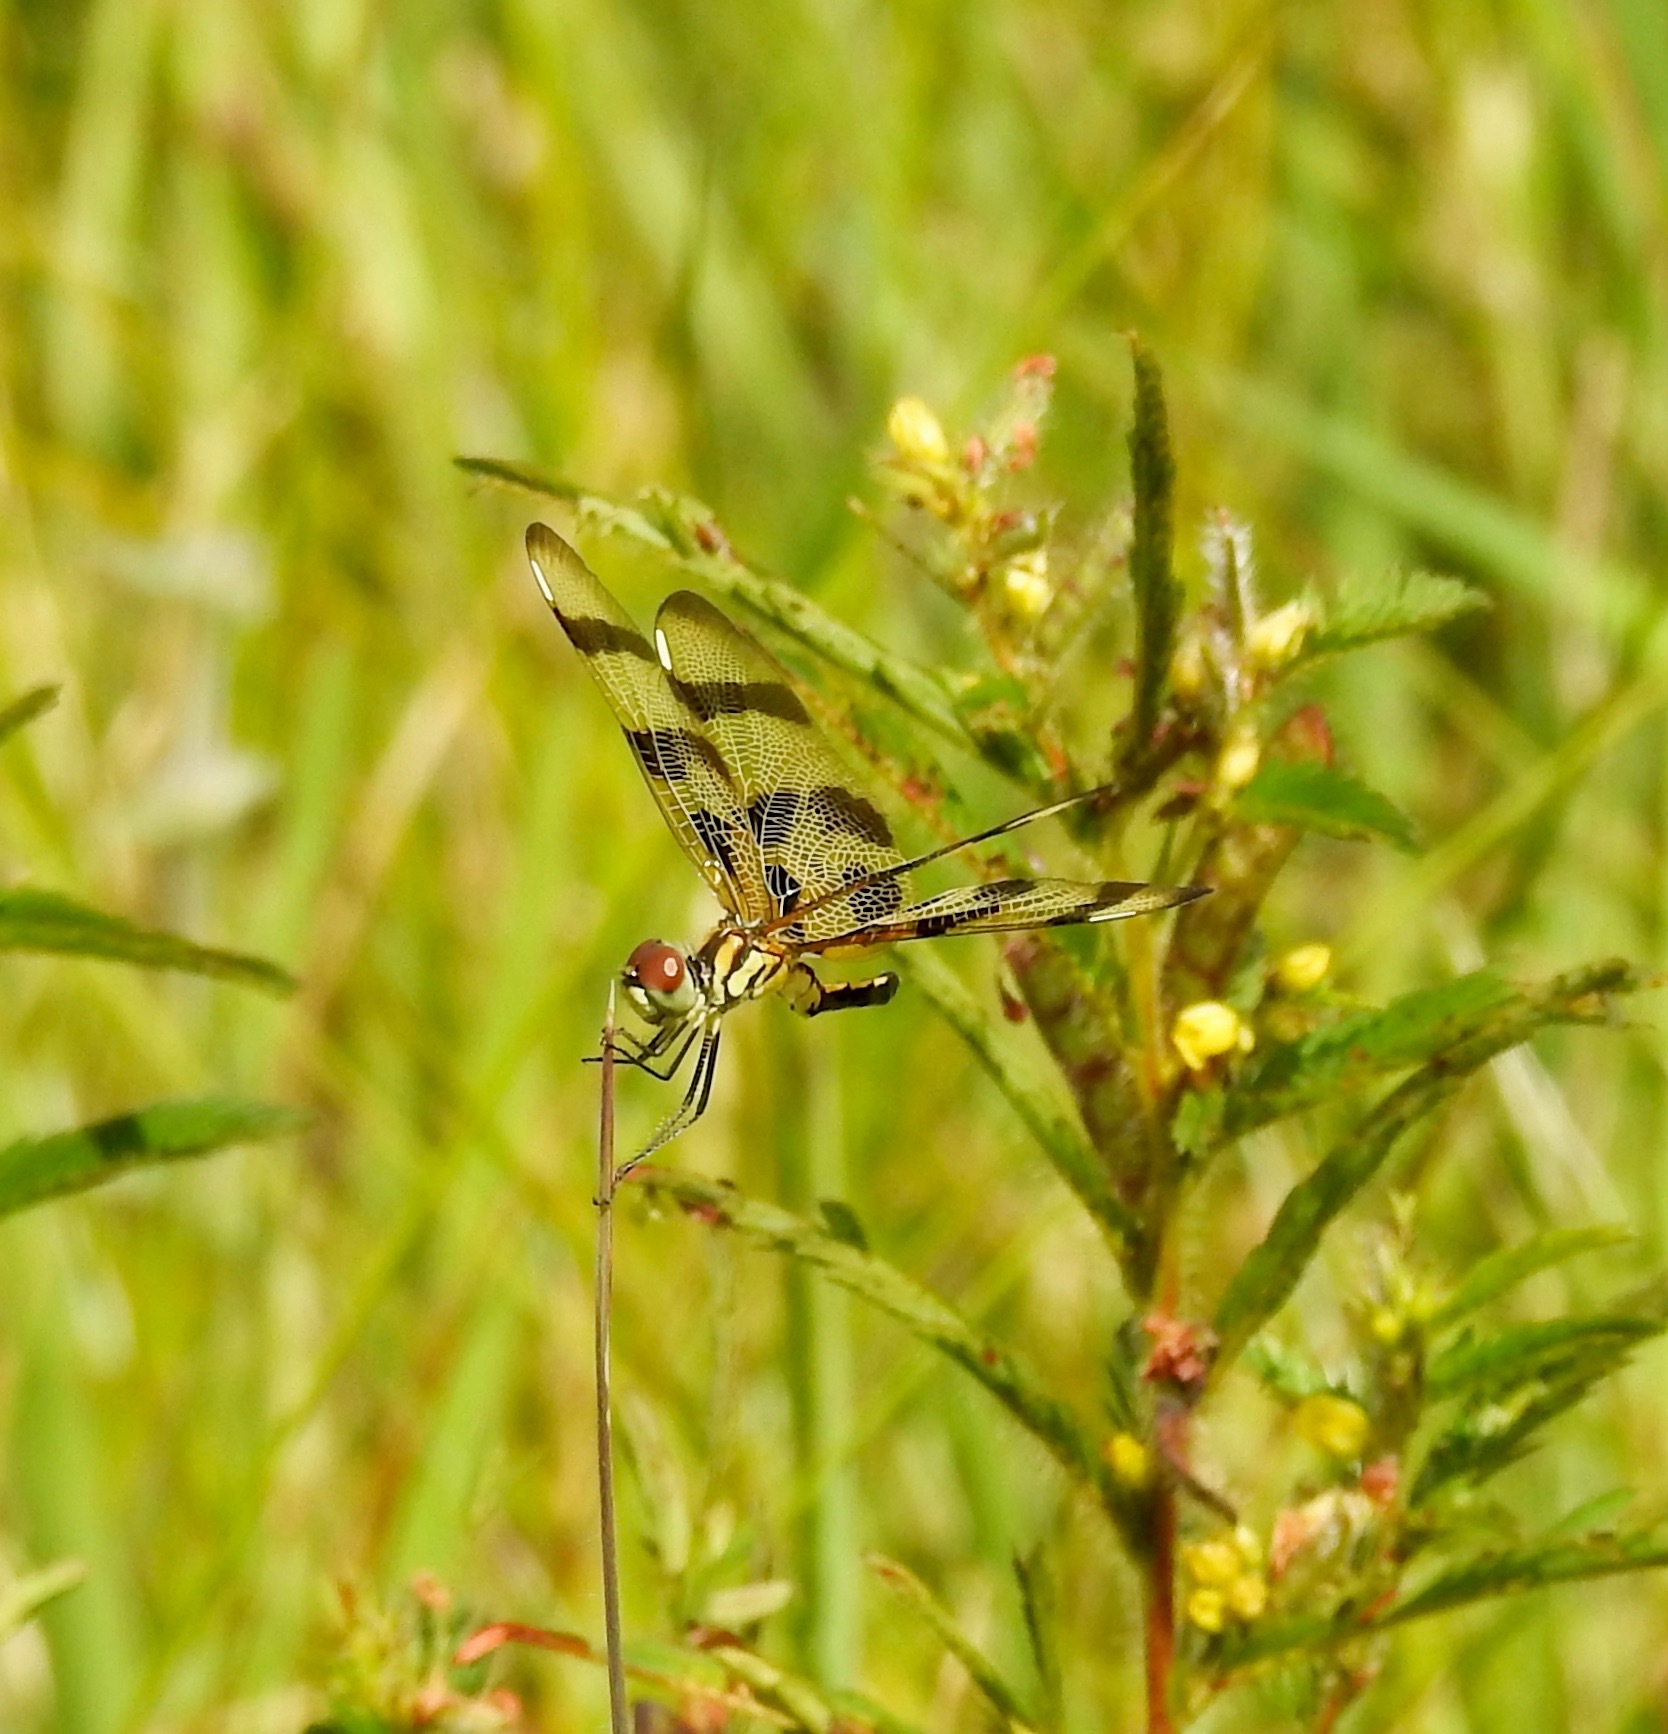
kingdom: Animalia
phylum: Arthropoda
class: Insecta
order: Odonata
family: Libellulidae
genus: Celithemis
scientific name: Celithemis eponina
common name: Halloween pennant
